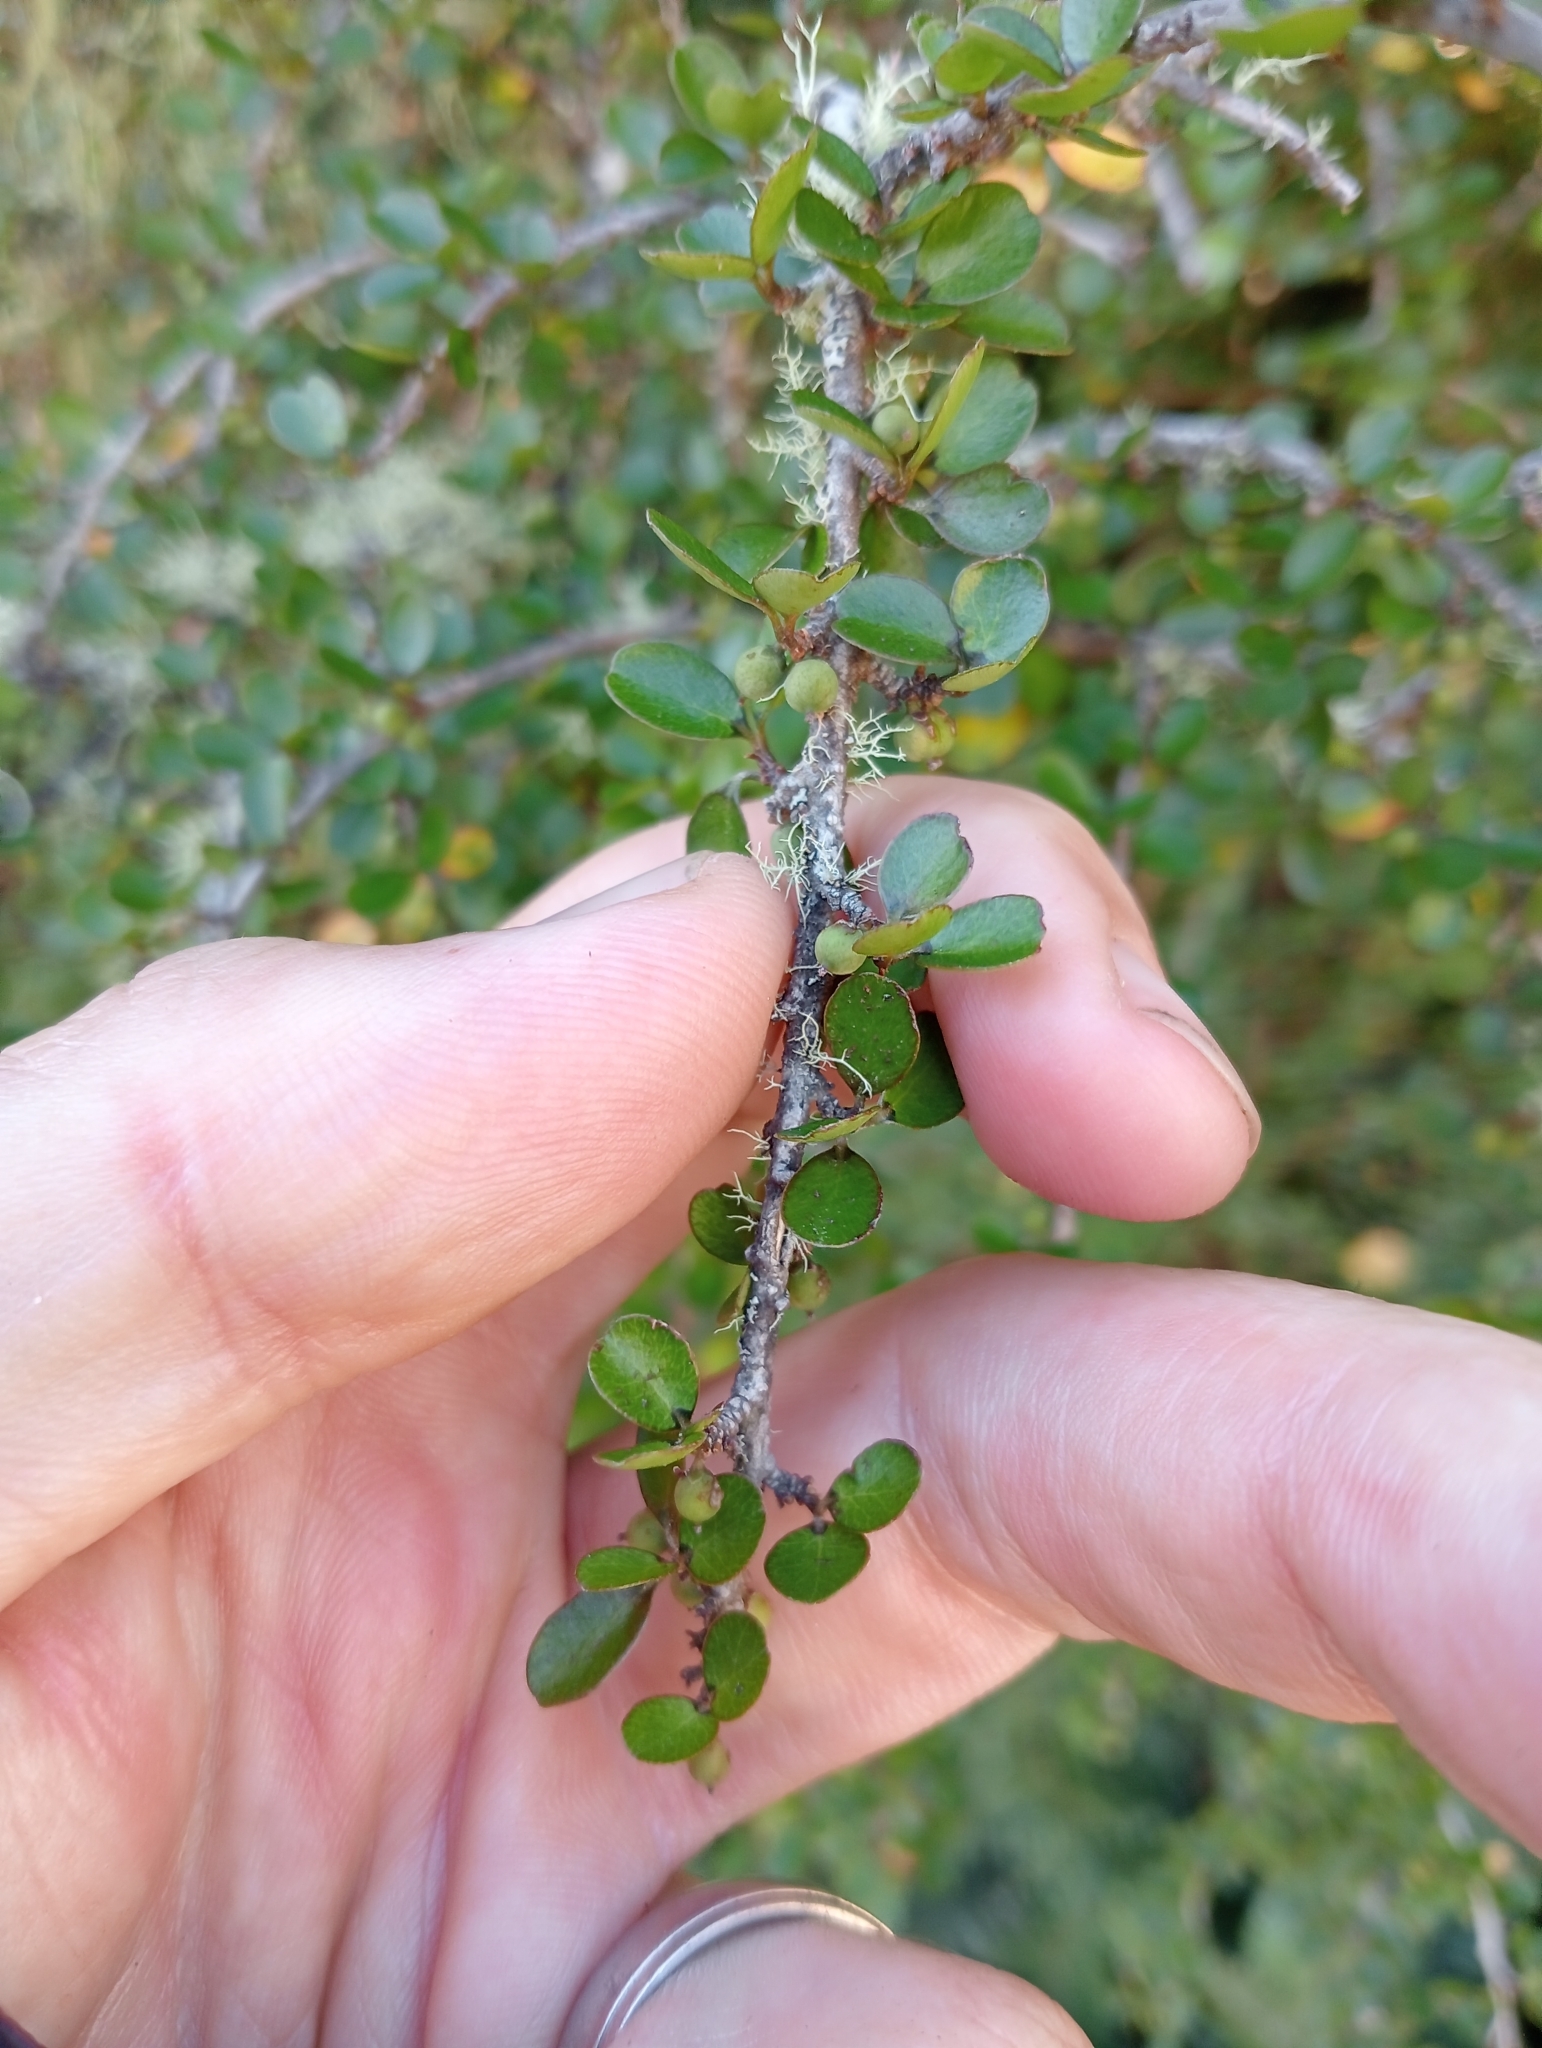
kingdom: Plantae
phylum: Tracheophyta
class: Magnoliopsida
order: Ericales
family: Primulaceae
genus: Myrsine
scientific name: Myrsine divaricata
